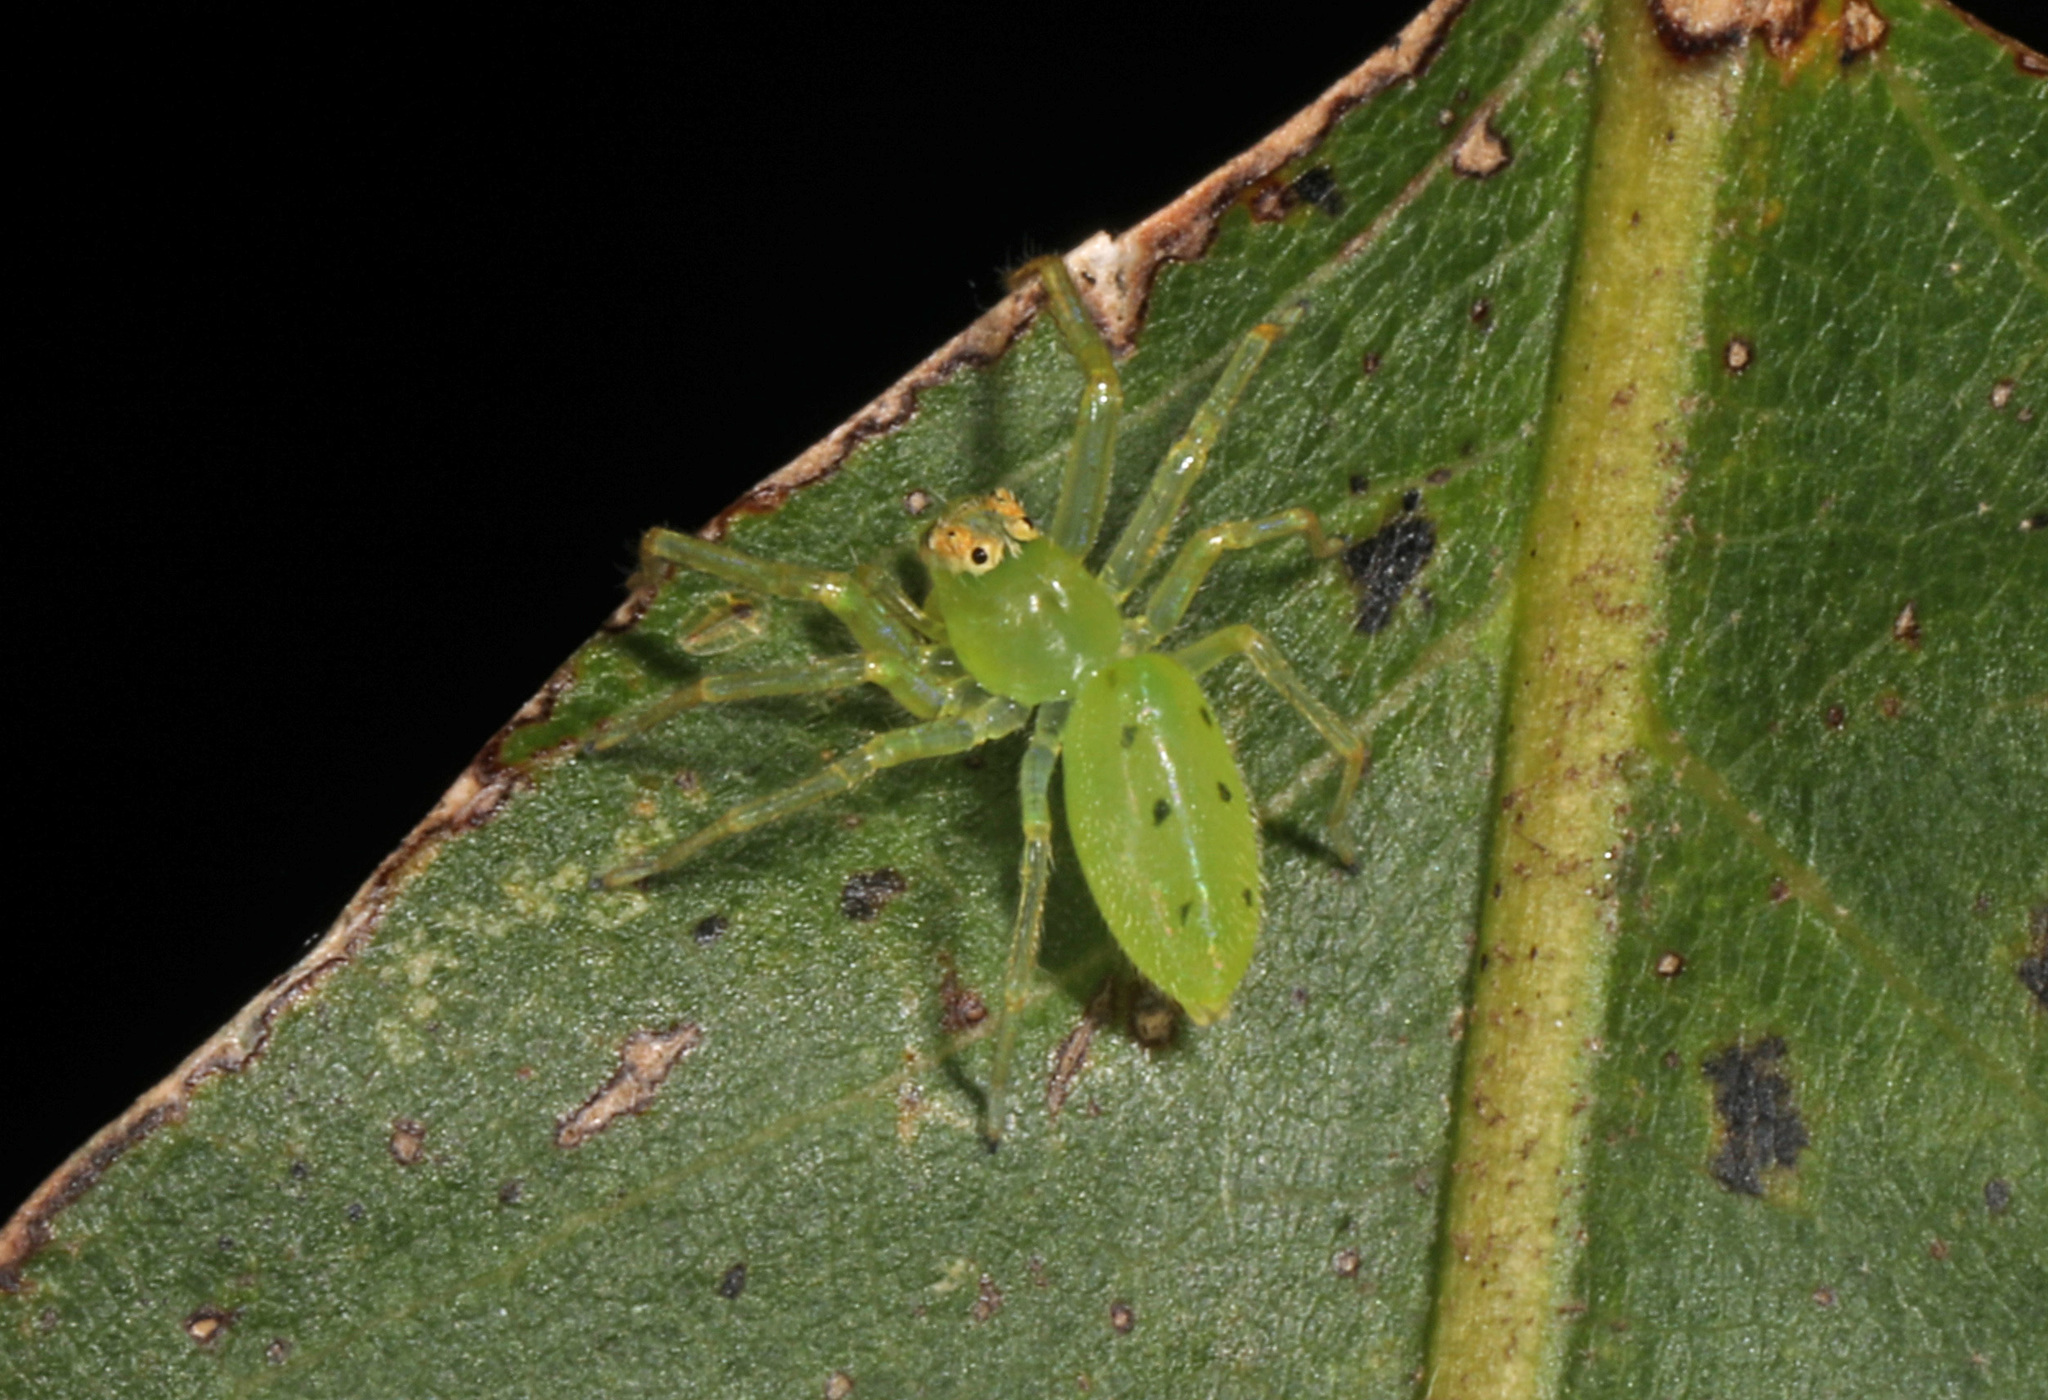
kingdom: Animalia
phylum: Arthropoda
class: Arachnida
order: Araneae
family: Salticidae
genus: Lyssomanes
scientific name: Lyssomanes viridis
